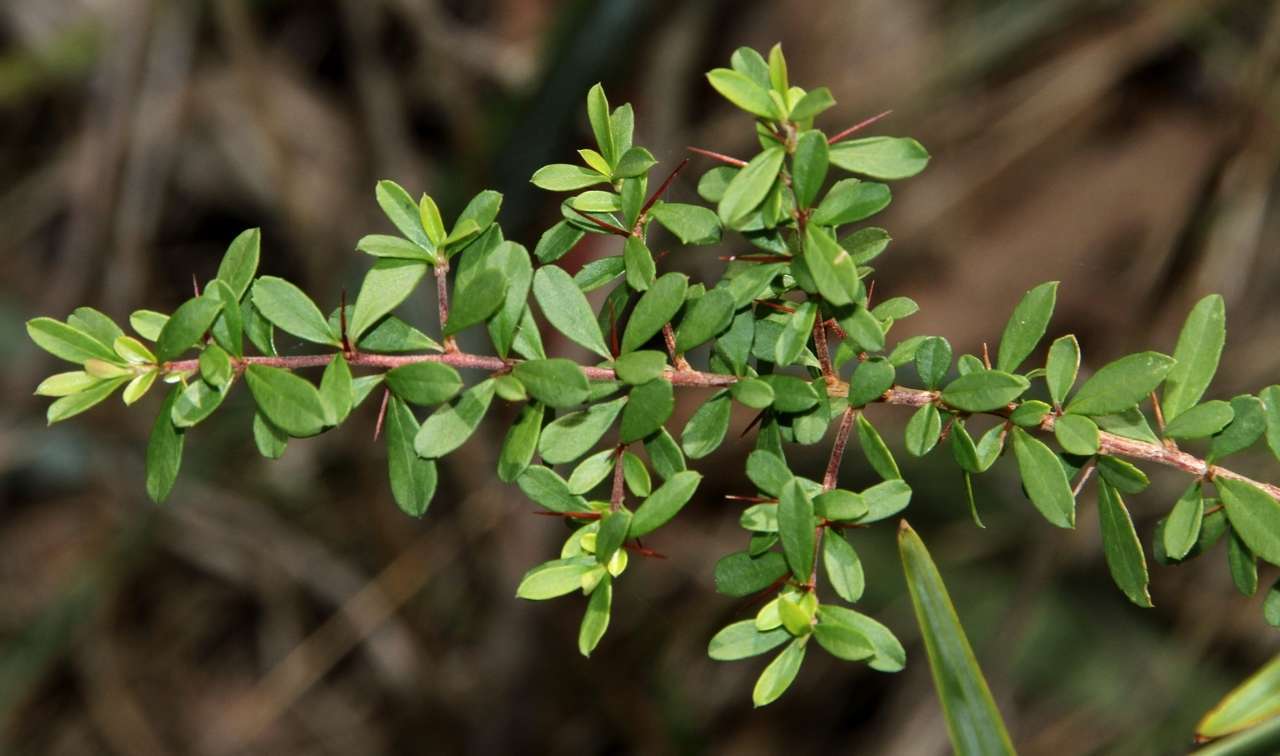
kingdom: Plantae
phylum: Tracheophyta
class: Magnoliopsida
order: Apiales
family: Pittosporaceae
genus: Bursaria
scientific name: Bursaria spinosa
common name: Australian blackthorn
